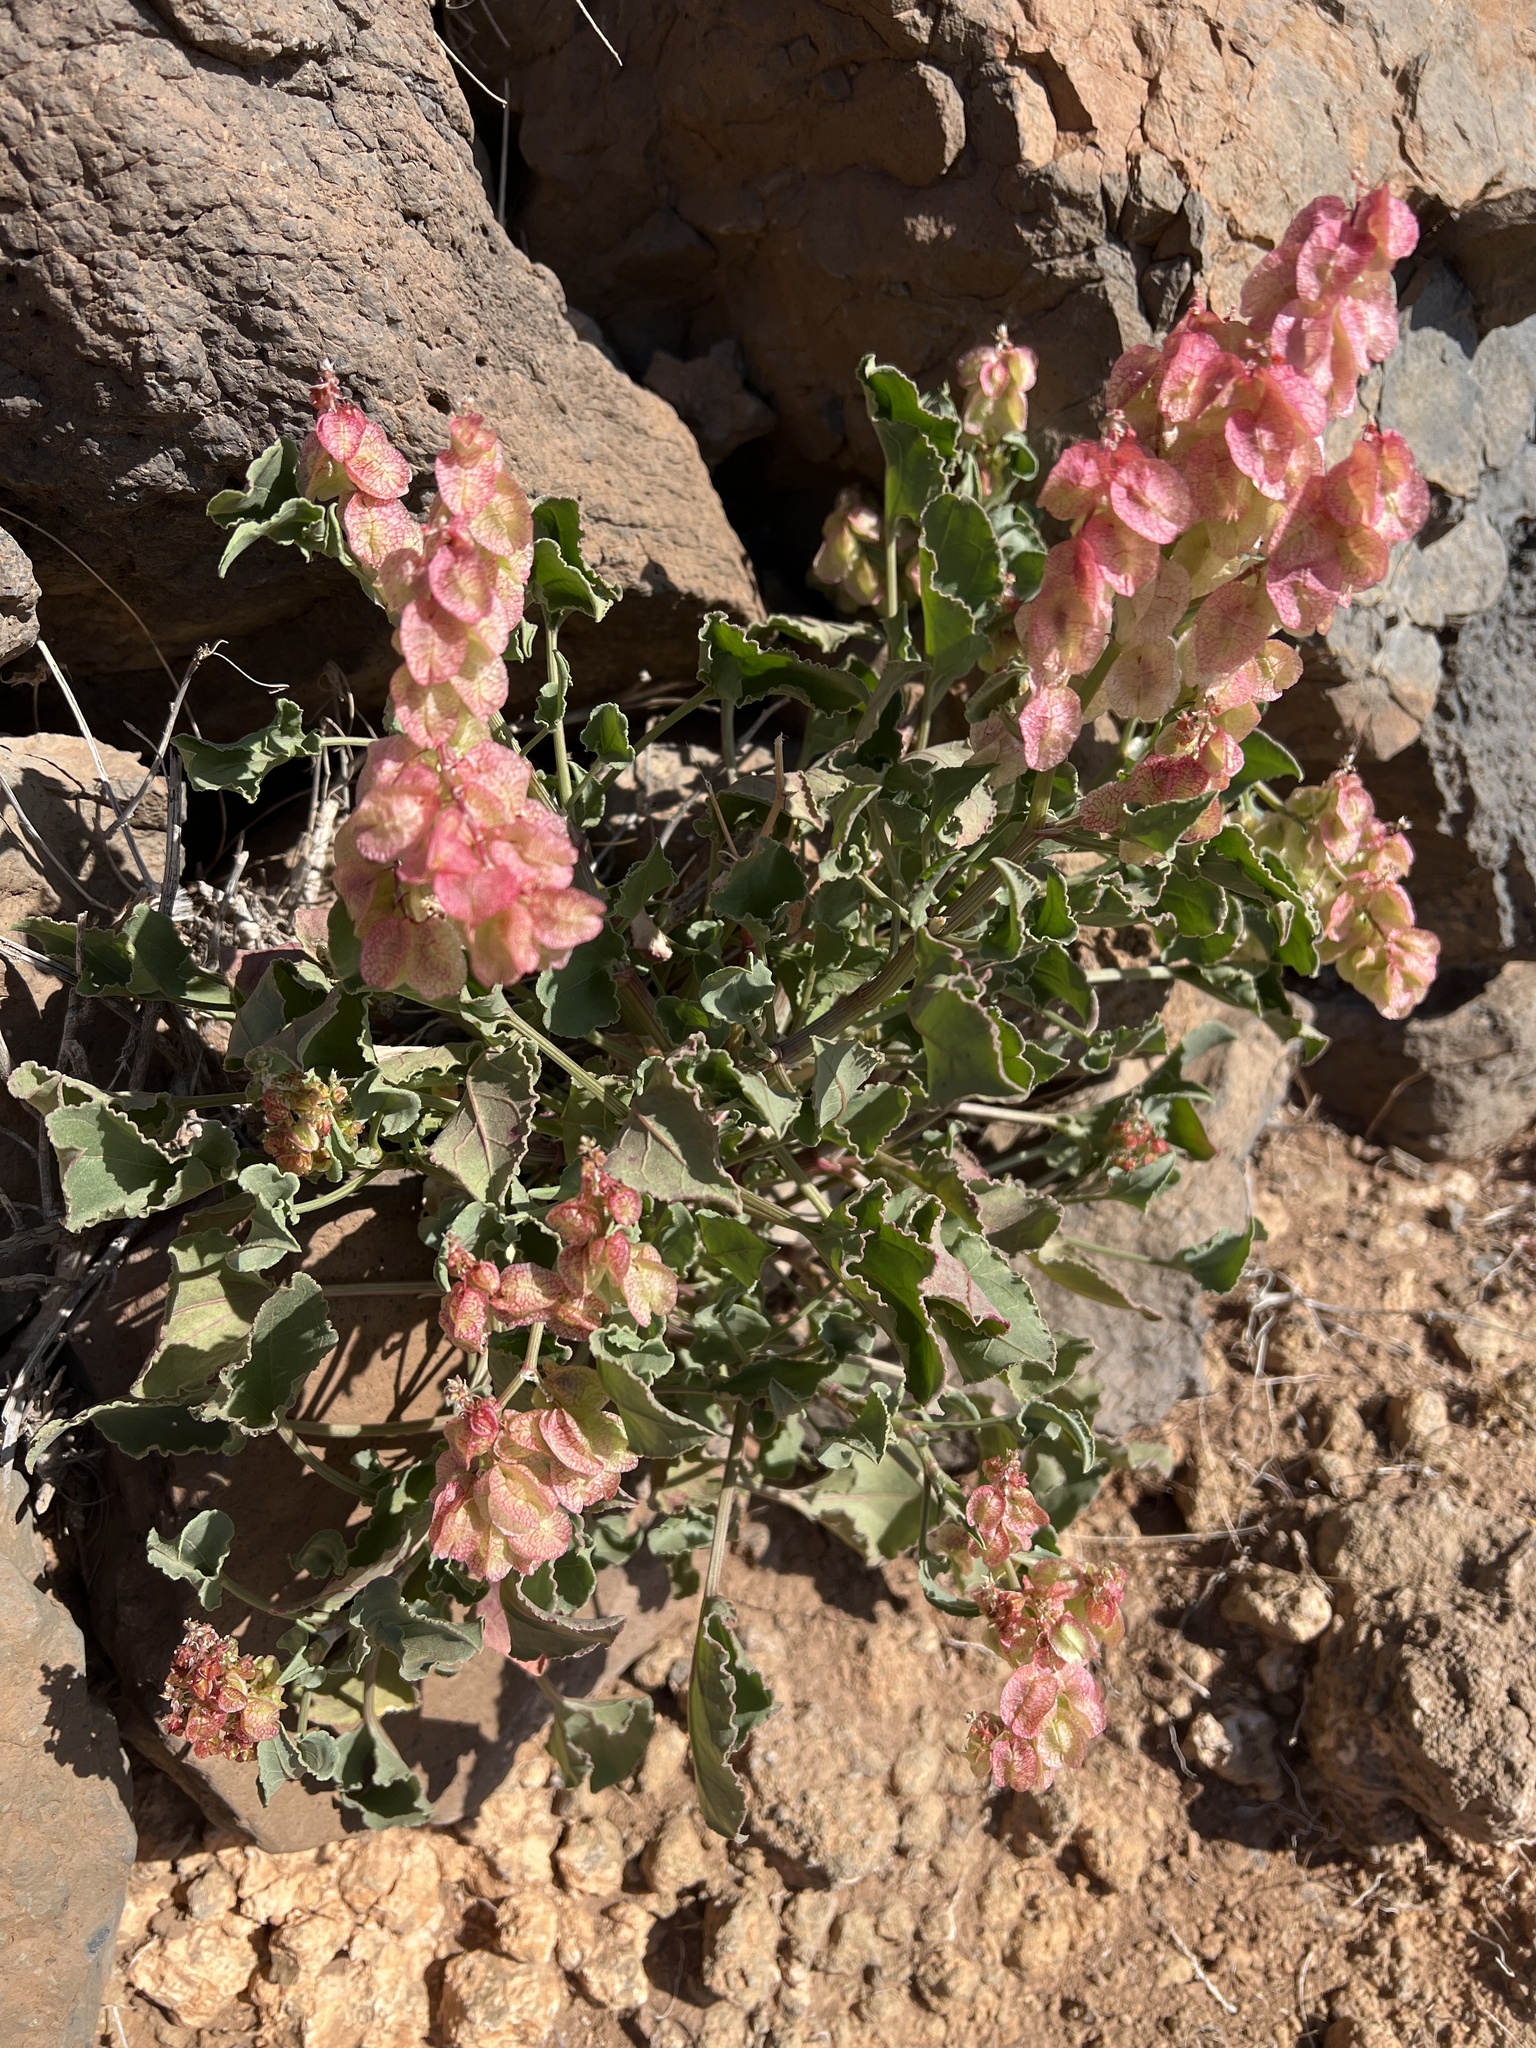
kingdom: Plantae
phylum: Tracheophyta
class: Magnoliopsida
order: Caryophyllales
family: Polygonaceae
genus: Rumex
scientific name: Rumex vesicarius
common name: Bladder dock
